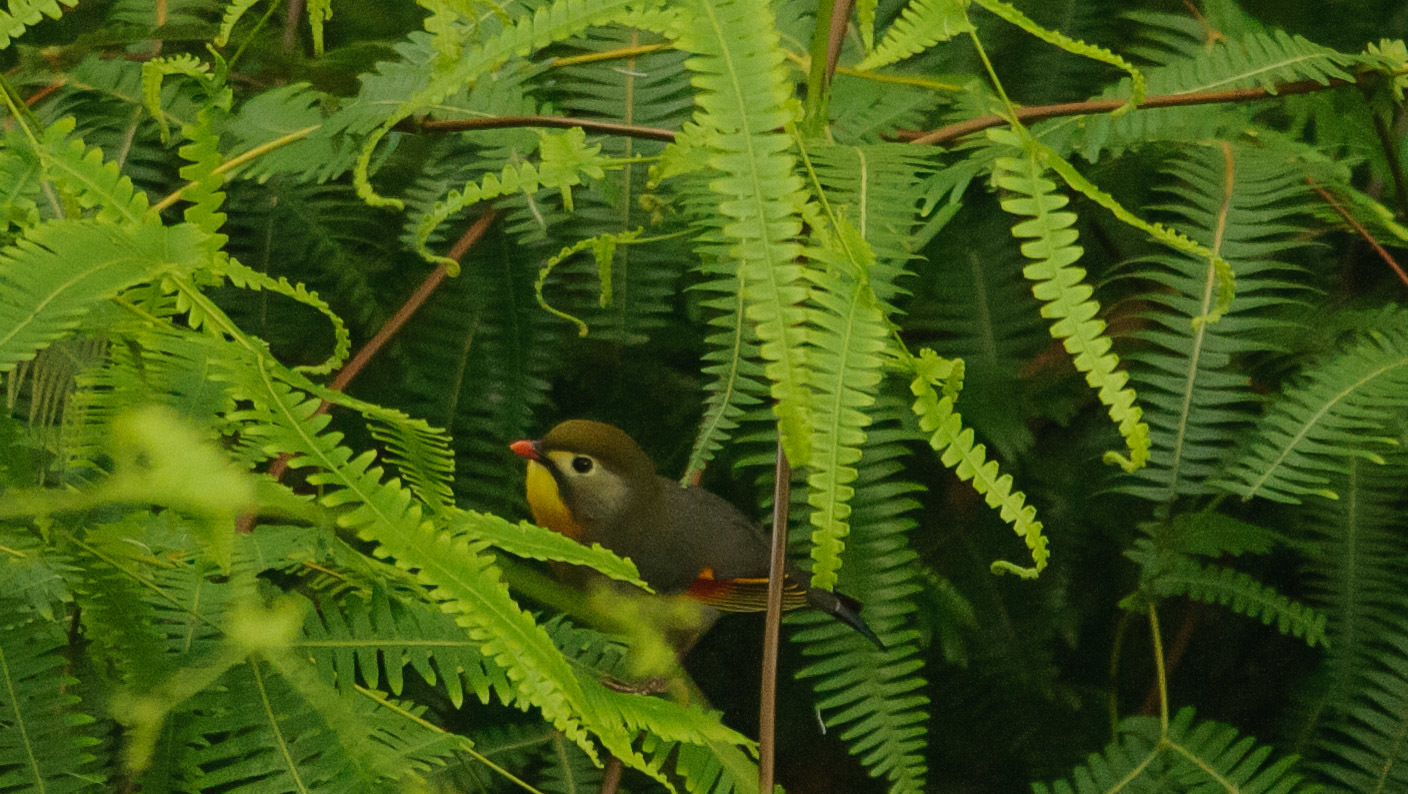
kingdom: Animalia
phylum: Chordata
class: Aves
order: Passeriformes
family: Leiothrichidae
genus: Leiothrix
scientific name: Leiothrix lutea
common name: Red-billed leiothrix
